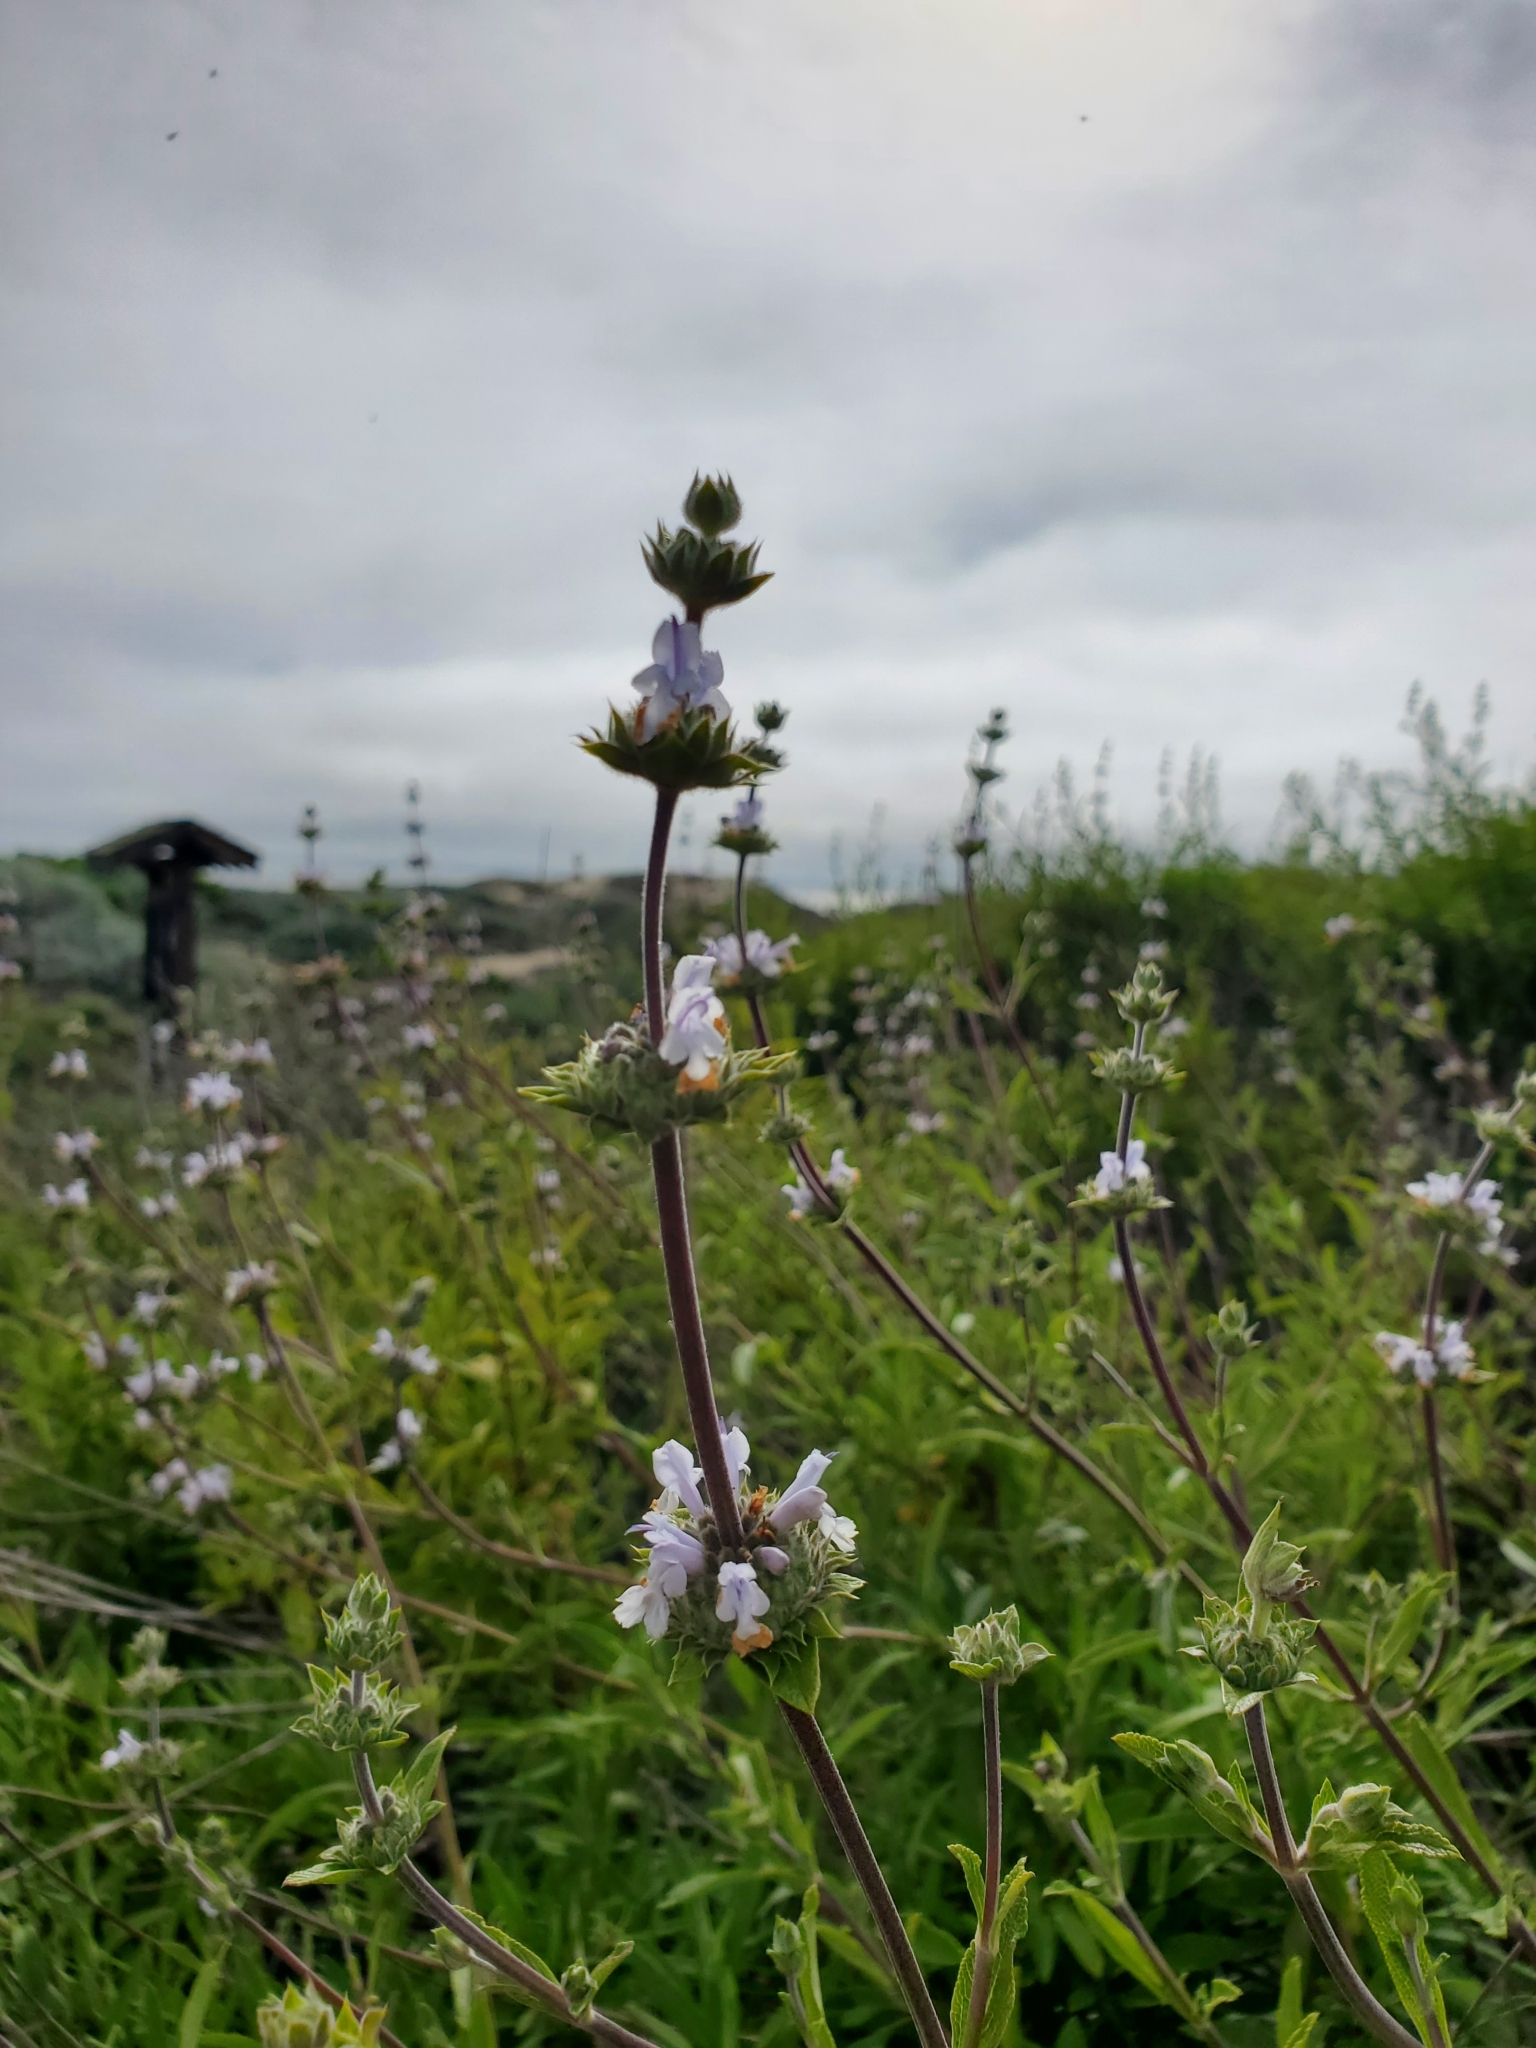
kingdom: Plantae
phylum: Tracheophyta
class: Magnoliopsida
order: Lamiales
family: Lamiaceae
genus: Salvia
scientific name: Salvia mellifera
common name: Black sage
